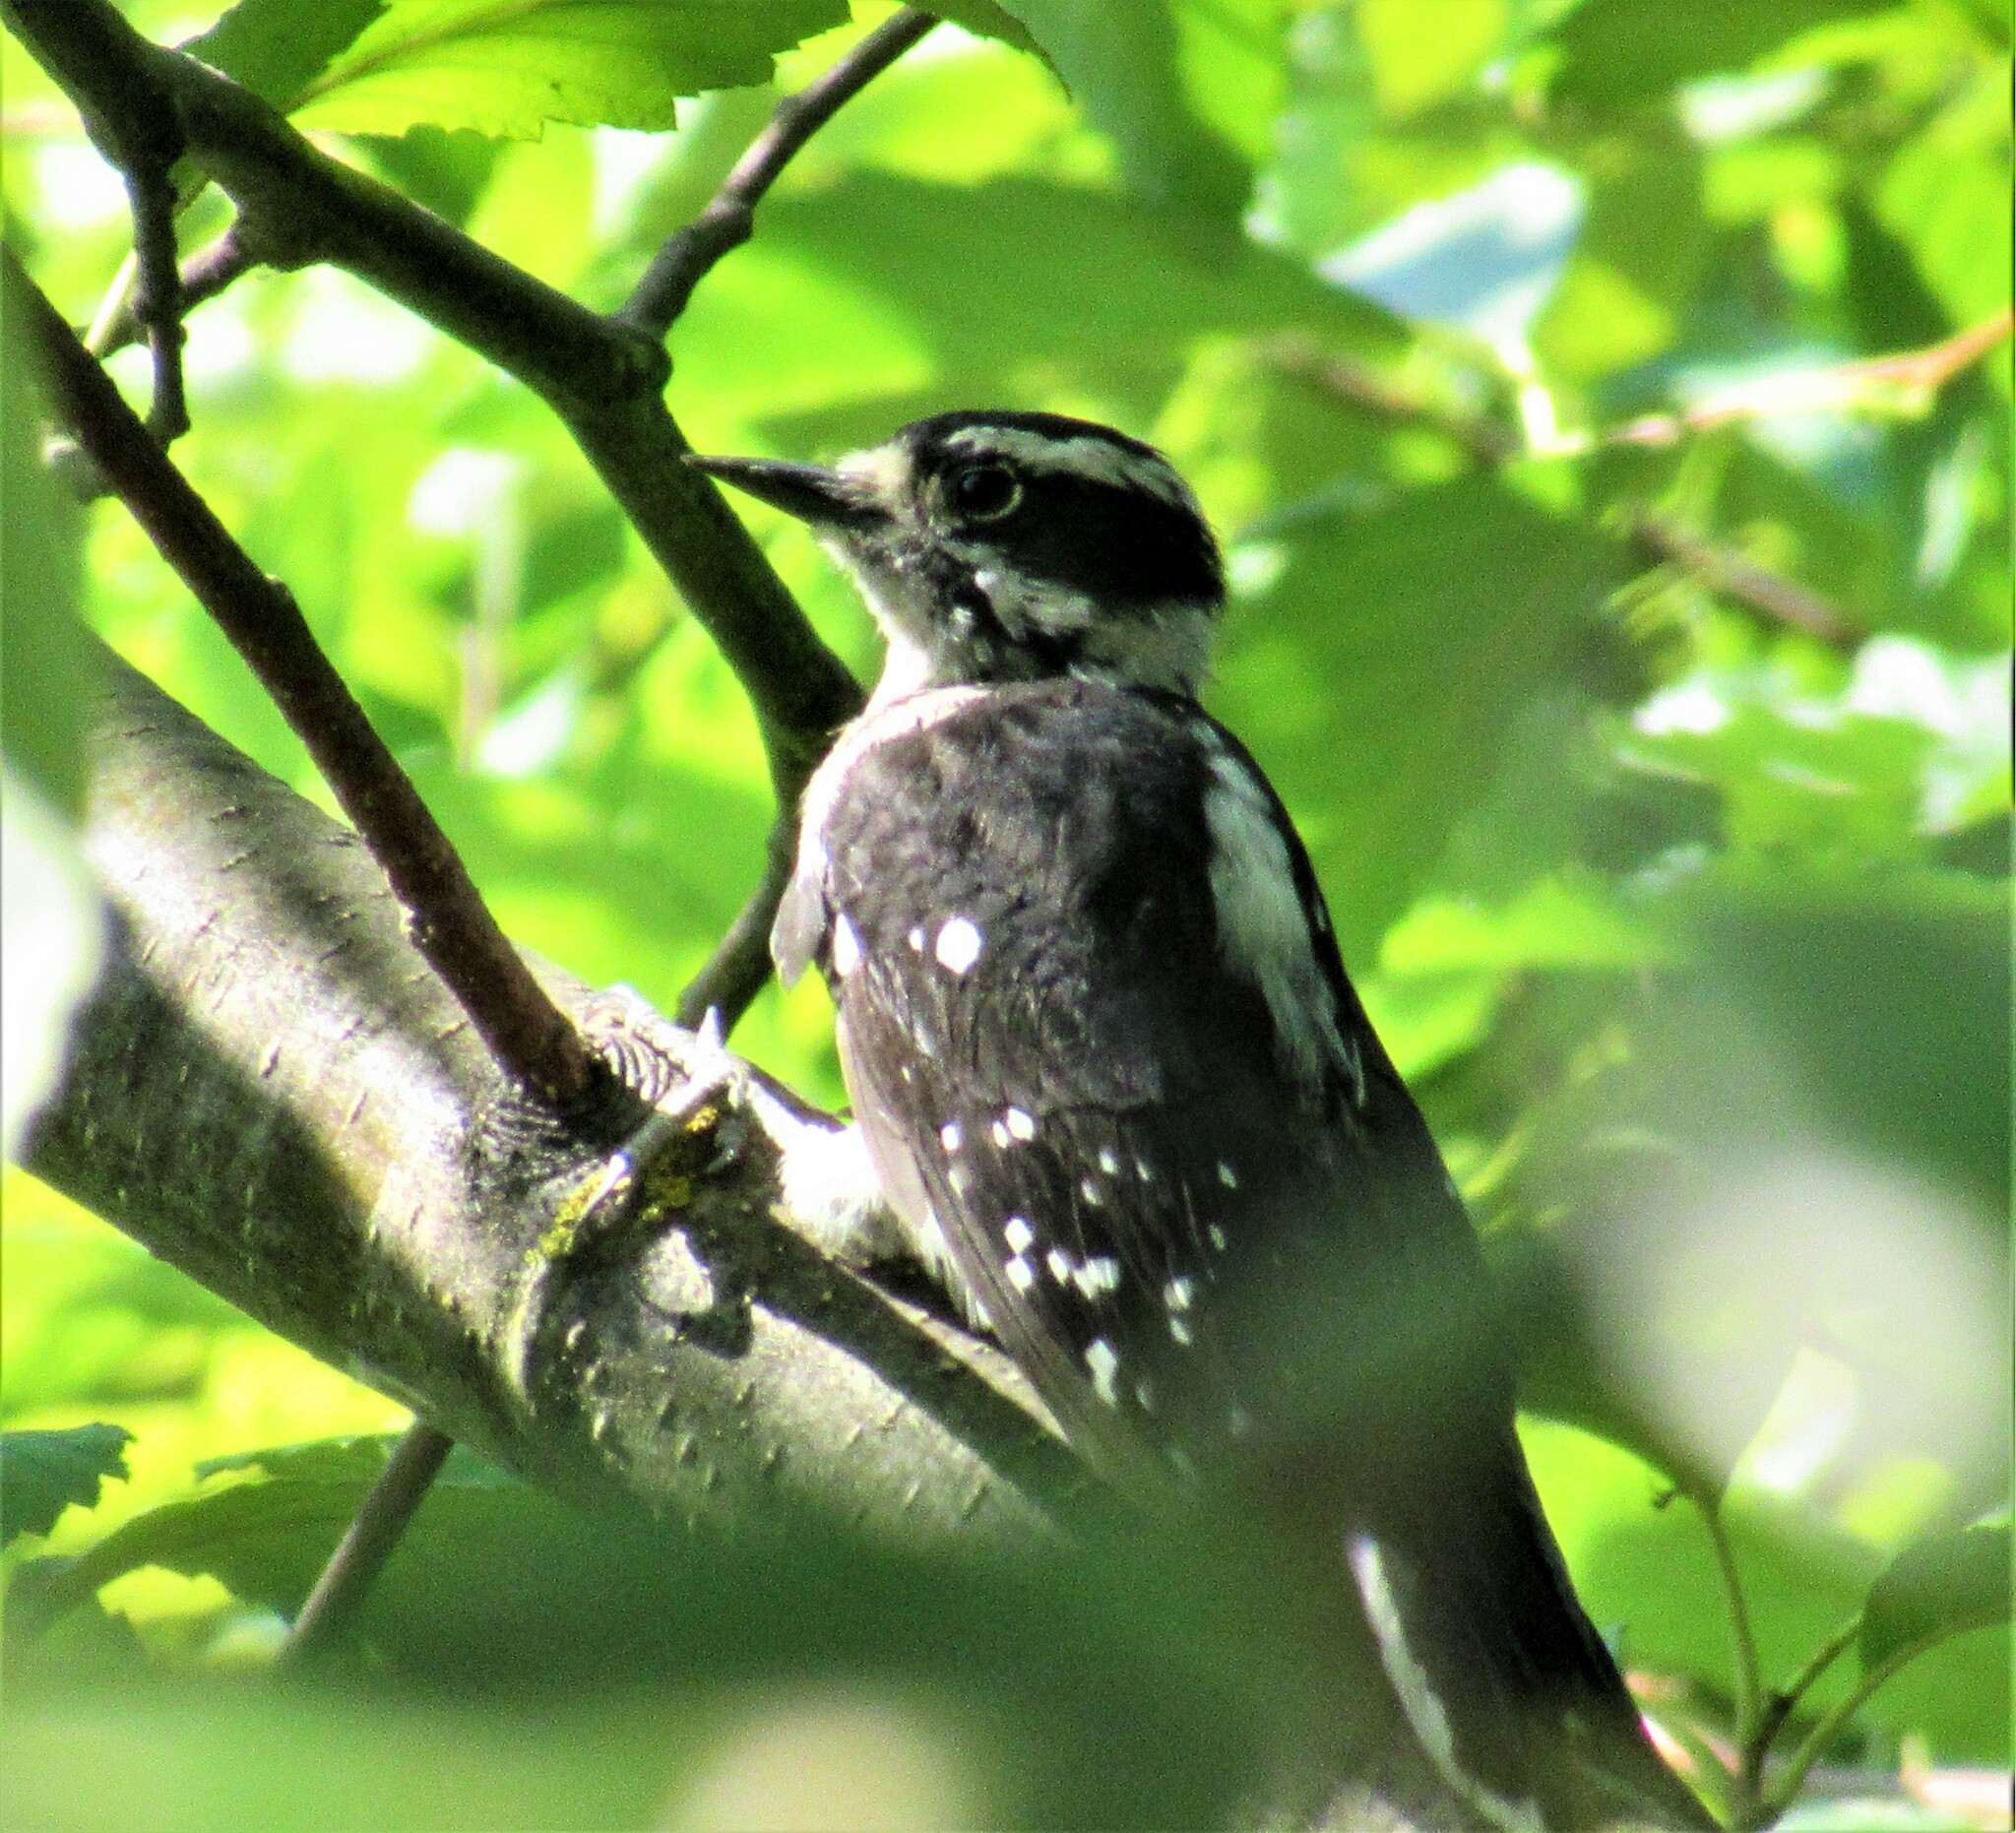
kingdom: Animalia
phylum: Chordata
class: Aves
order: Piciformes
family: Picidae
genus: Dryobates
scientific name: Dryobates pubescens
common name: Downy woodpecker
